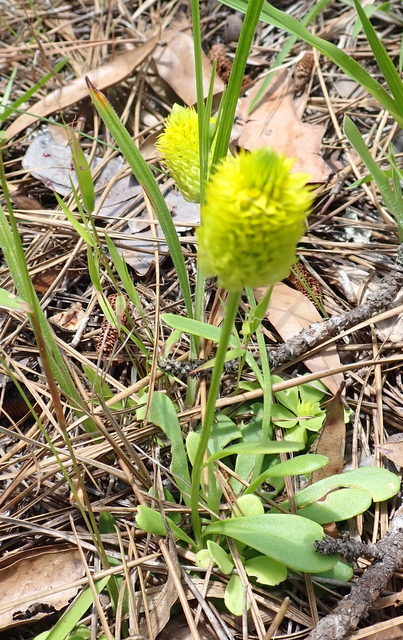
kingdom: Plantae
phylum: Tracheophyta
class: Magnoliopsida
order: Fabales
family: Polygalaceae
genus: Polygala
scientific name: Polygala nana
